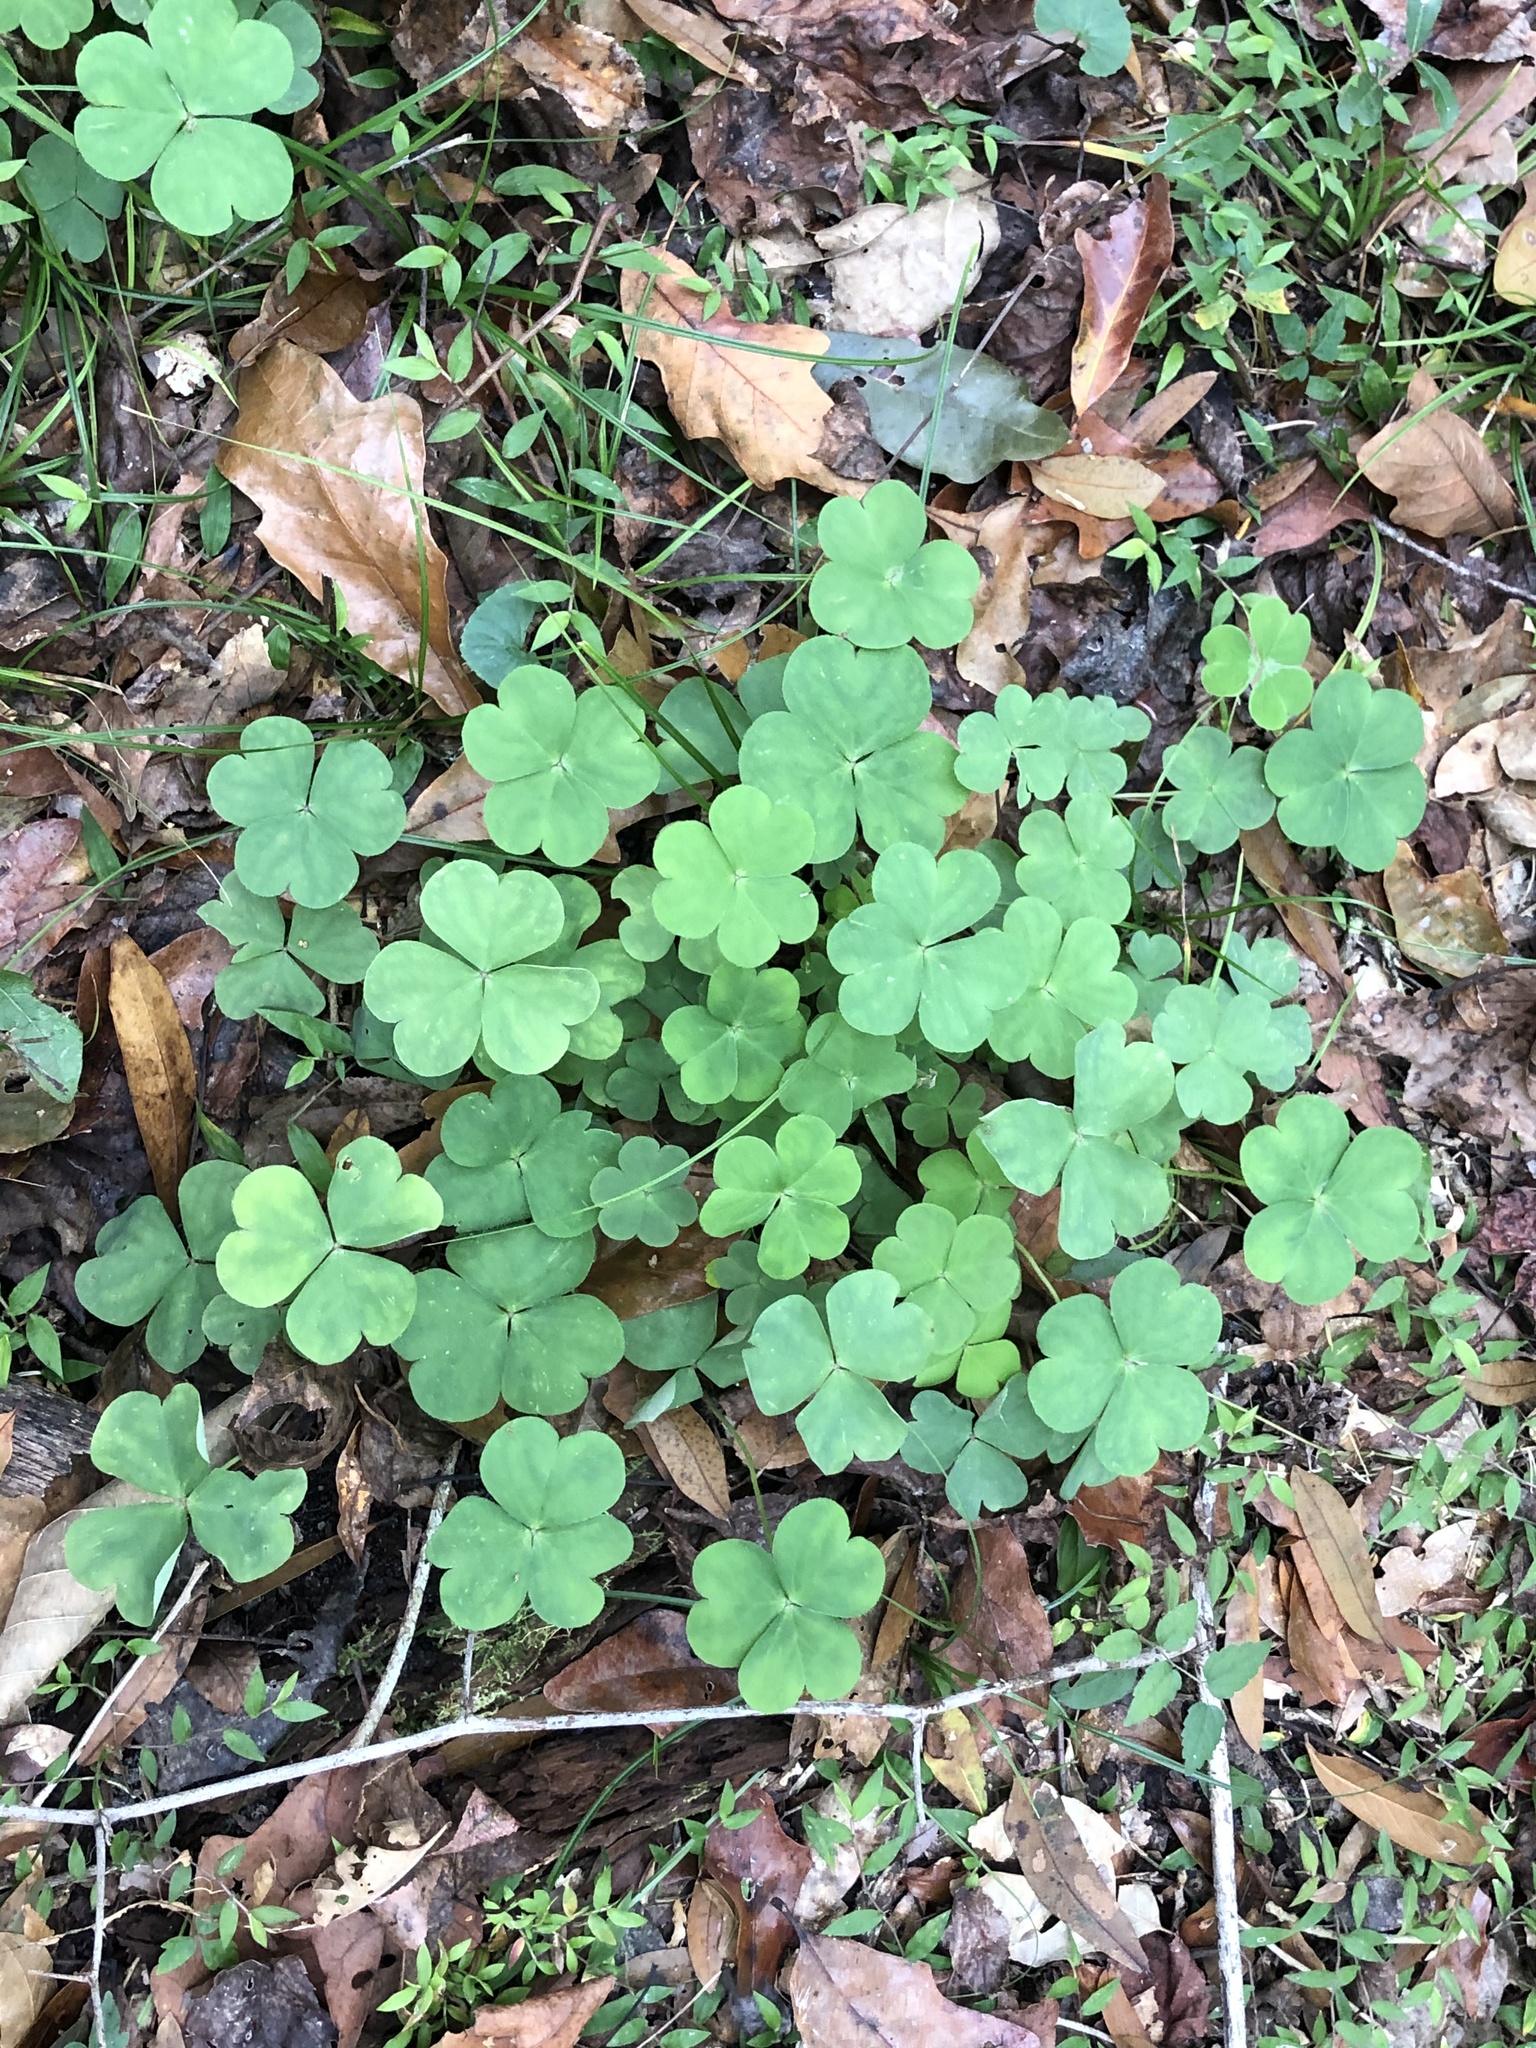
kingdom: Plantae
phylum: Tracheophyta
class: Magnoliopsida
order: Oxalidales
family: Oxalidaceae
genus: Oxalis
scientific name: Oxalis debilis
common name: Large-flowered pink-sorrel
